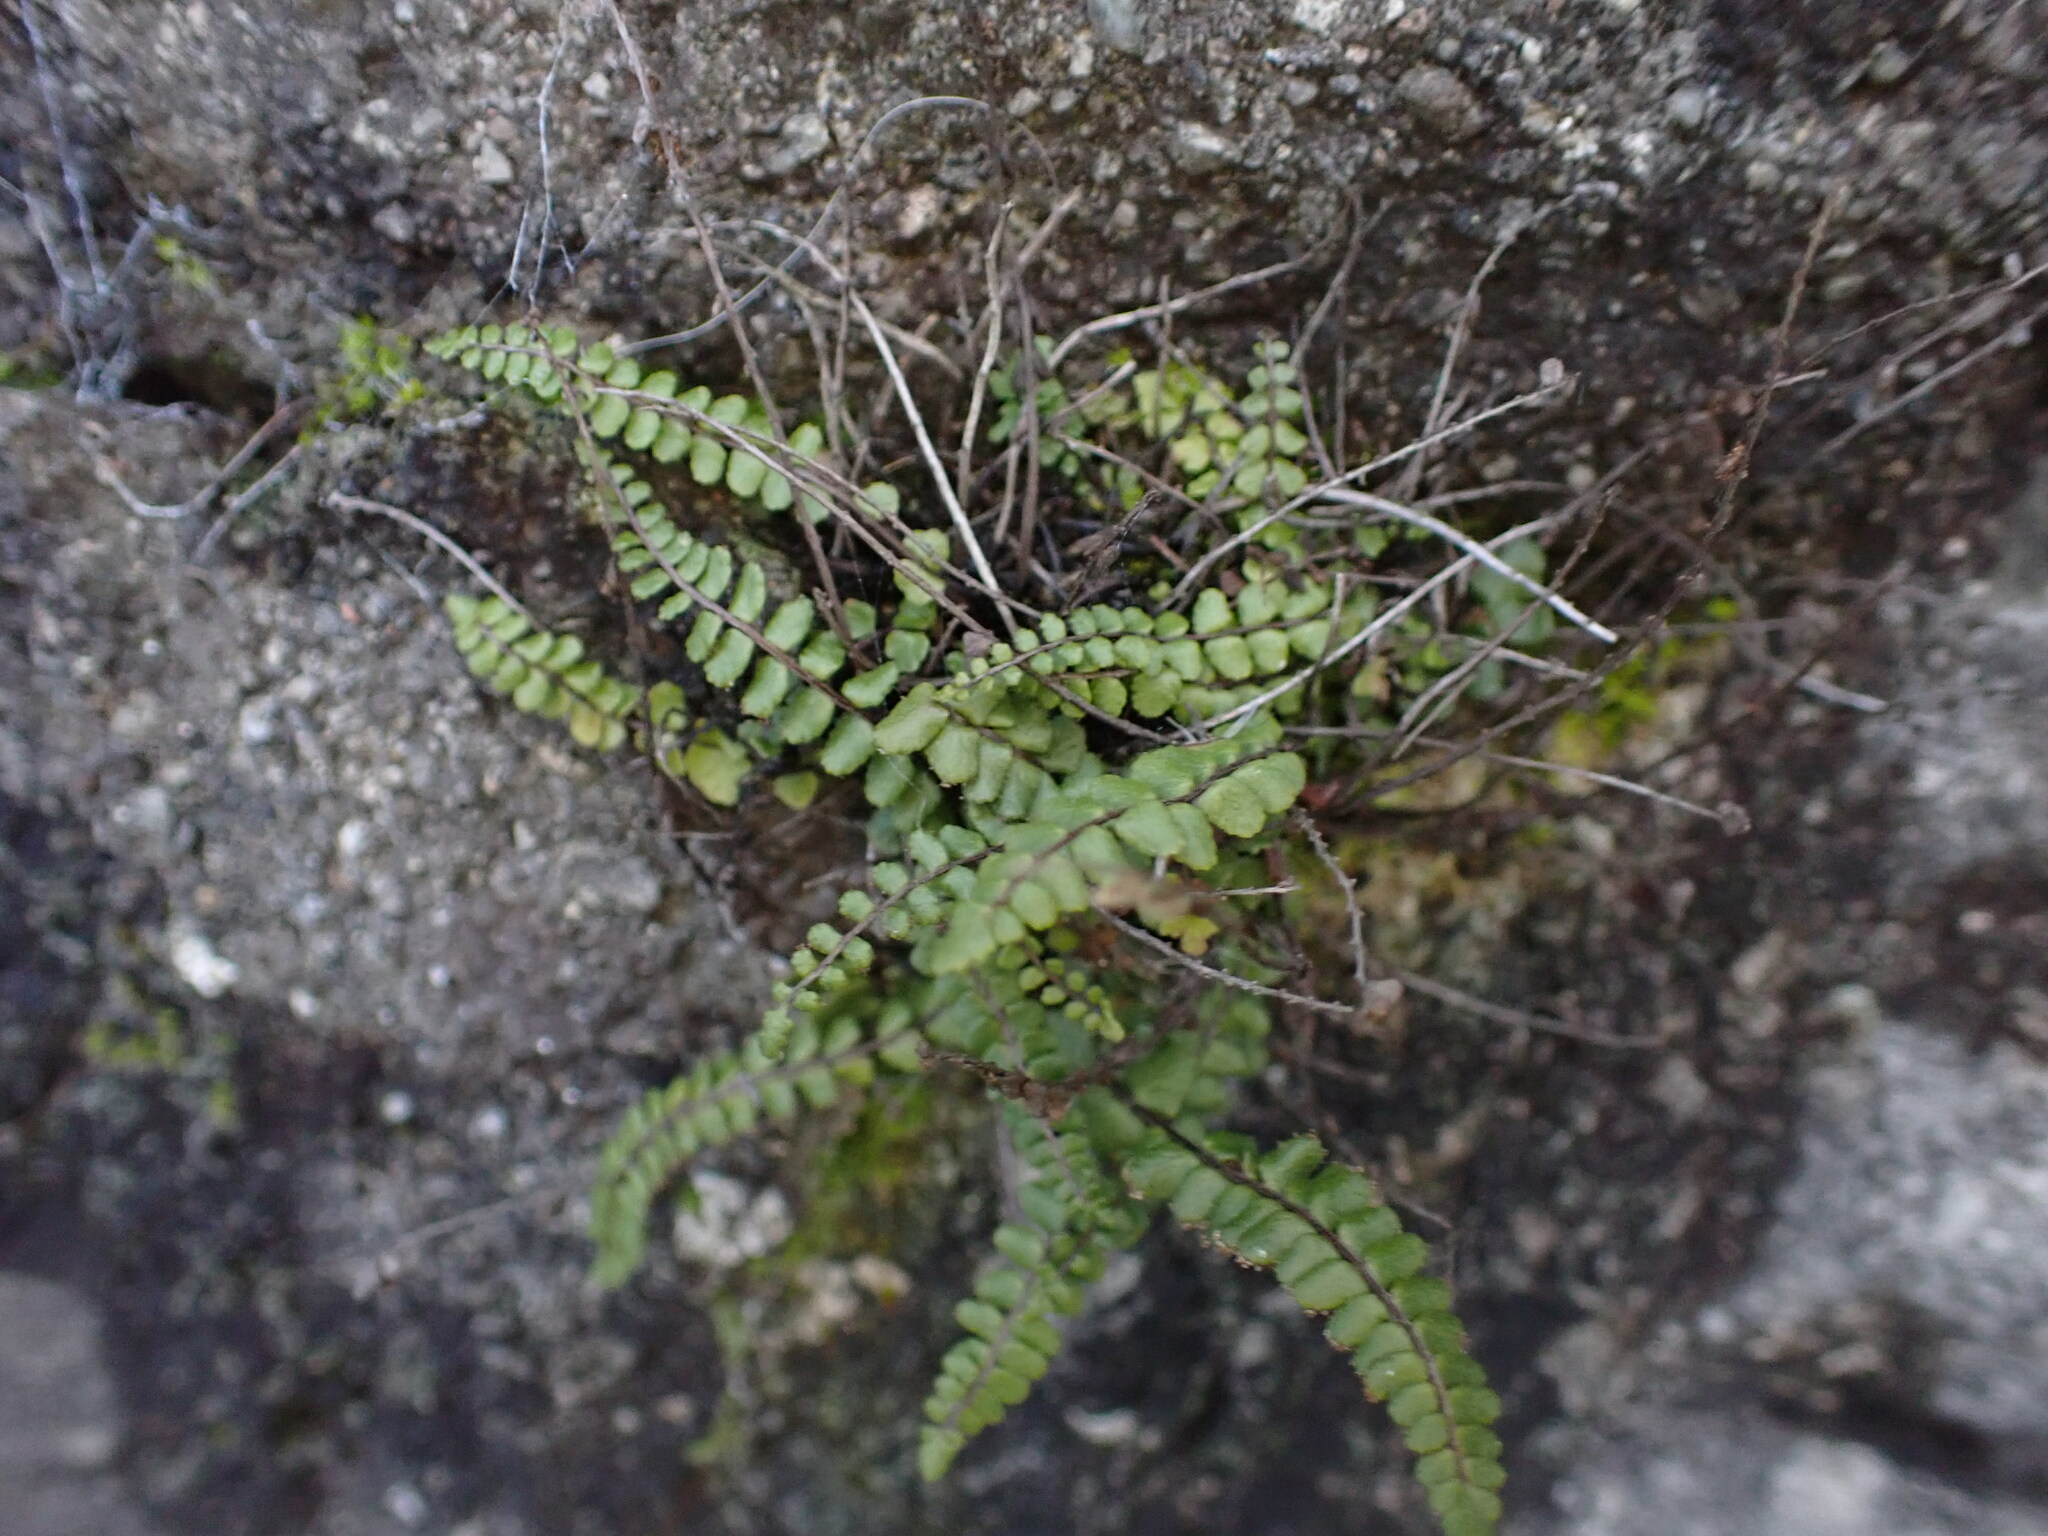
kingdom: Plantae
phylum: Tracheophyta
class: Polypodiopsida
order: Polypodiales
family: Aspleniaceae
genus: Asplenium
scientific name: Asplenium trichomanes
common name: Maidenhair spleenwort
